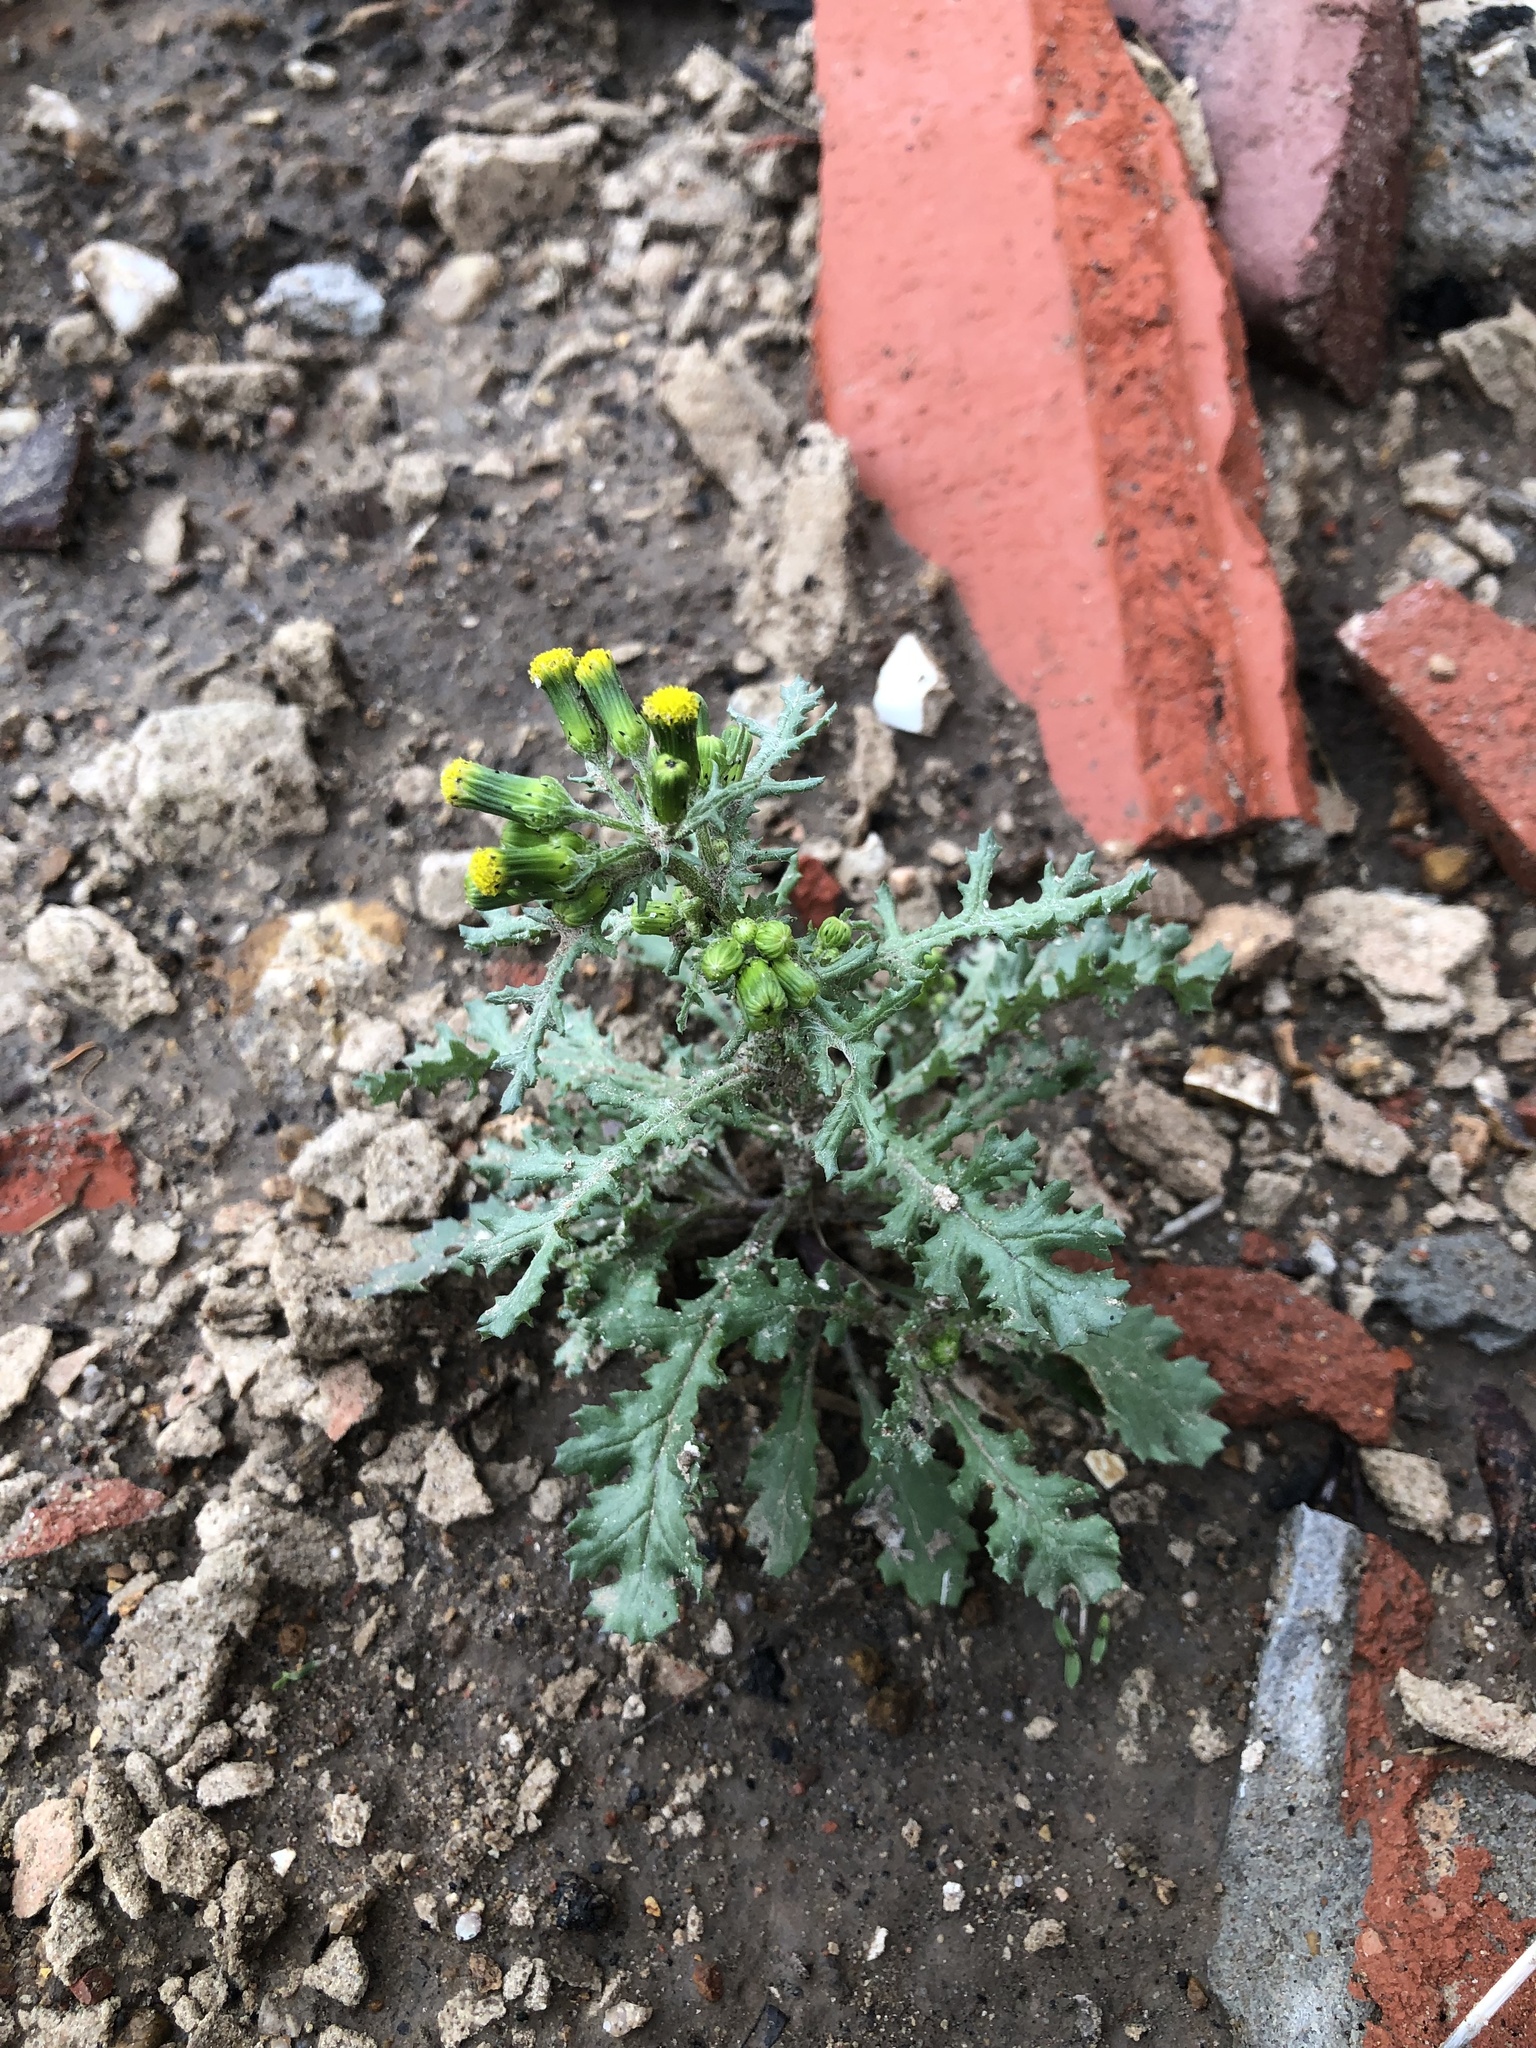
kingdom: Plantae
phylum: Tracheophyta
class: Magnoliopsida
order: Asterales
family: Asteraceae
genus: Senecio
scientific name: Senecio vulgaris
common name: Old-man-in-the-spring
